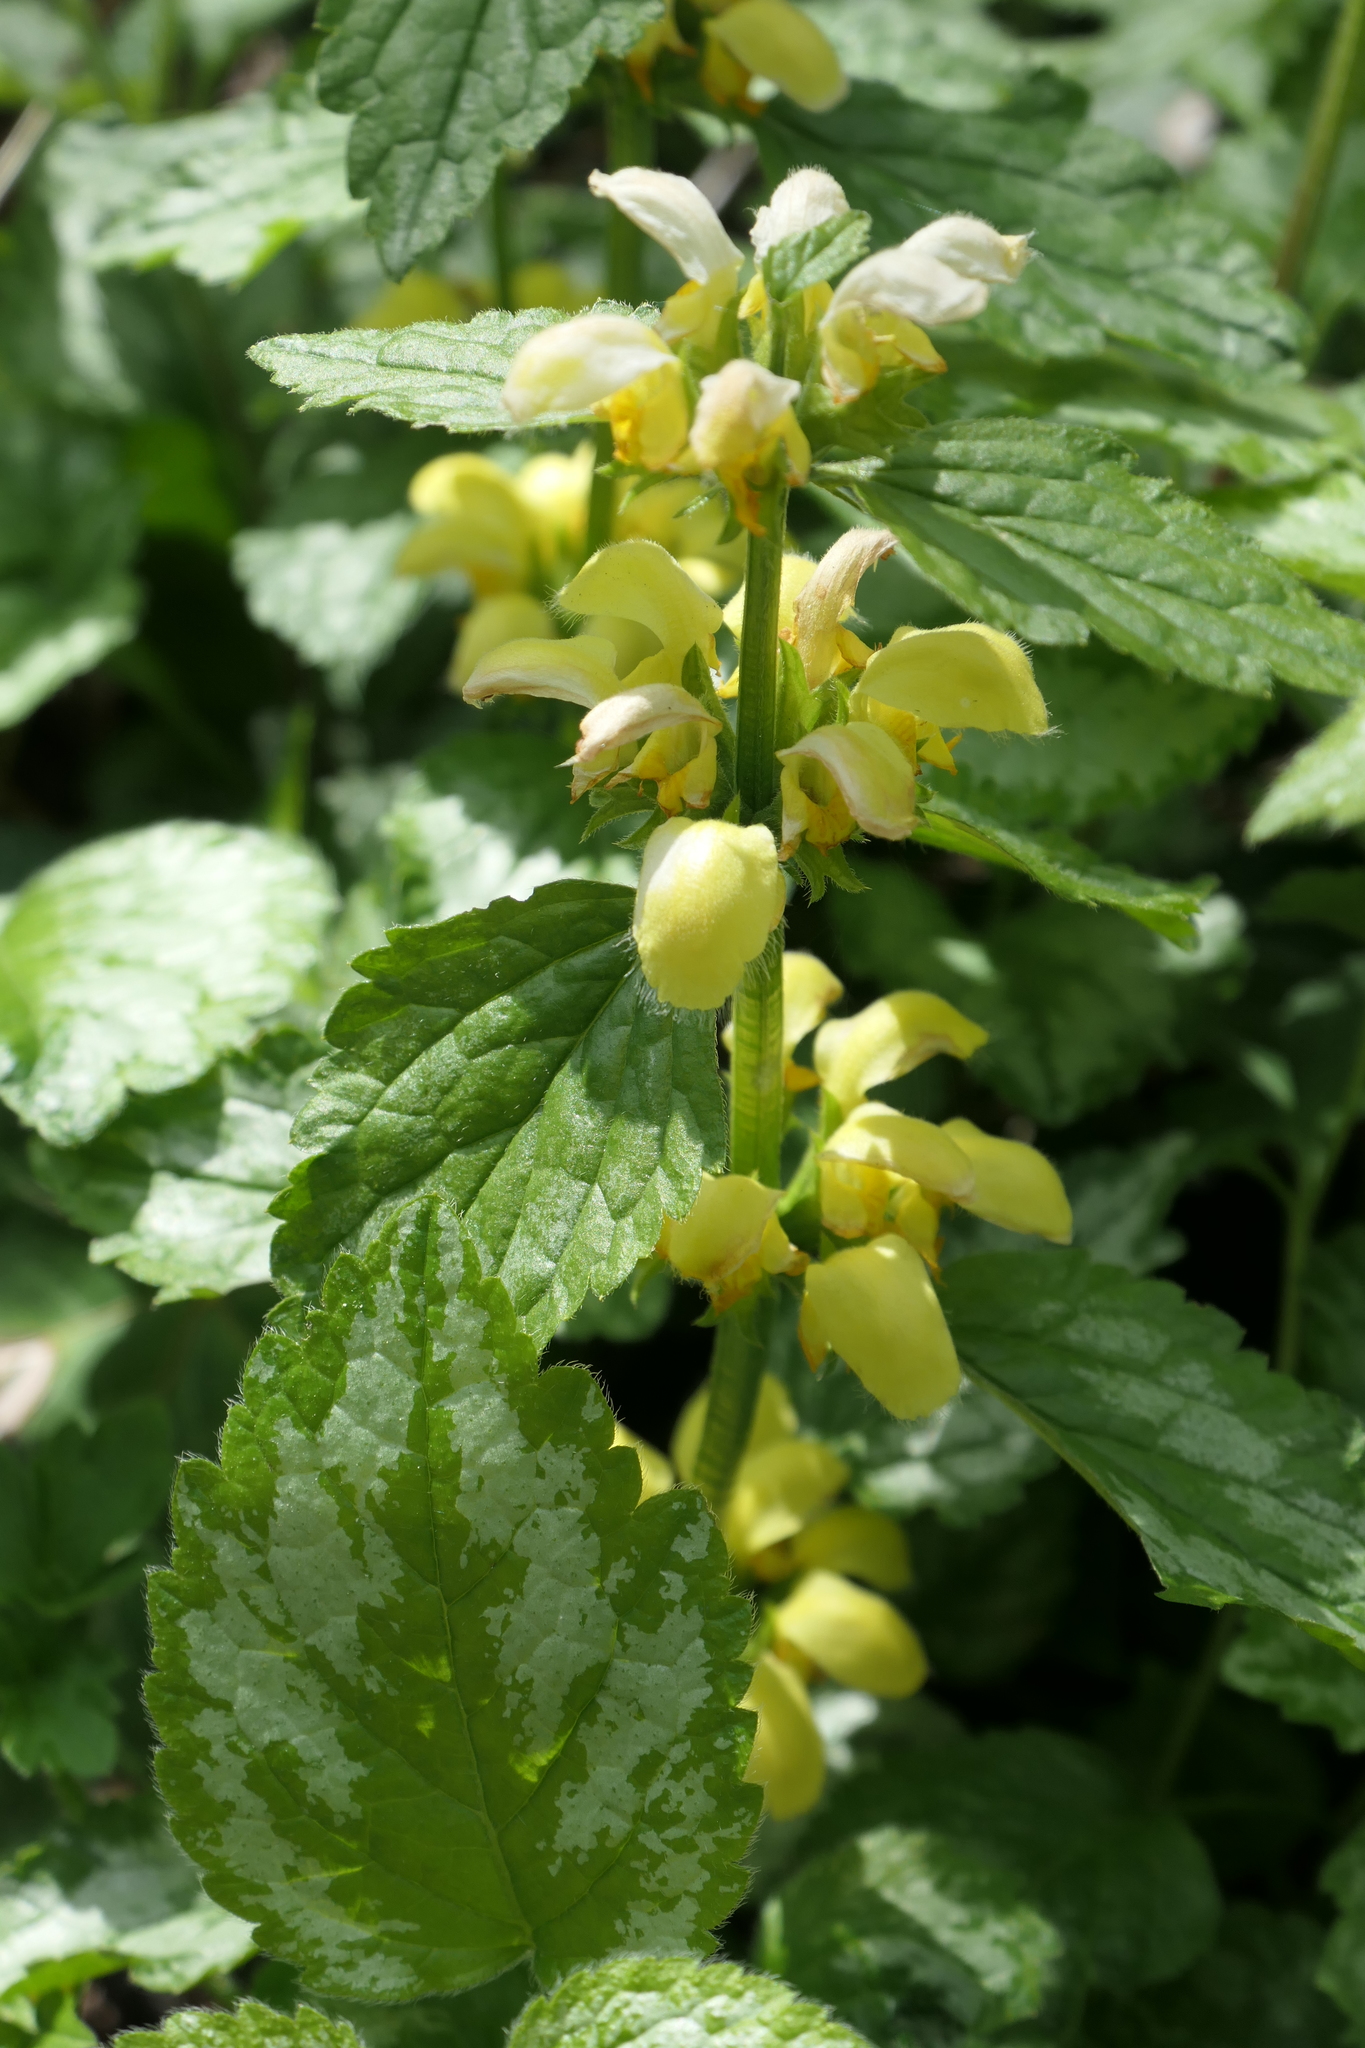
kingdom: Plantae
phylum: Tracheophyta
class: Magnoliopsida
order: Lamiales
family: Lamiaceae
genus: Lamium
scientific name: Lamium galeobdolon
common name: Yellow archangel
